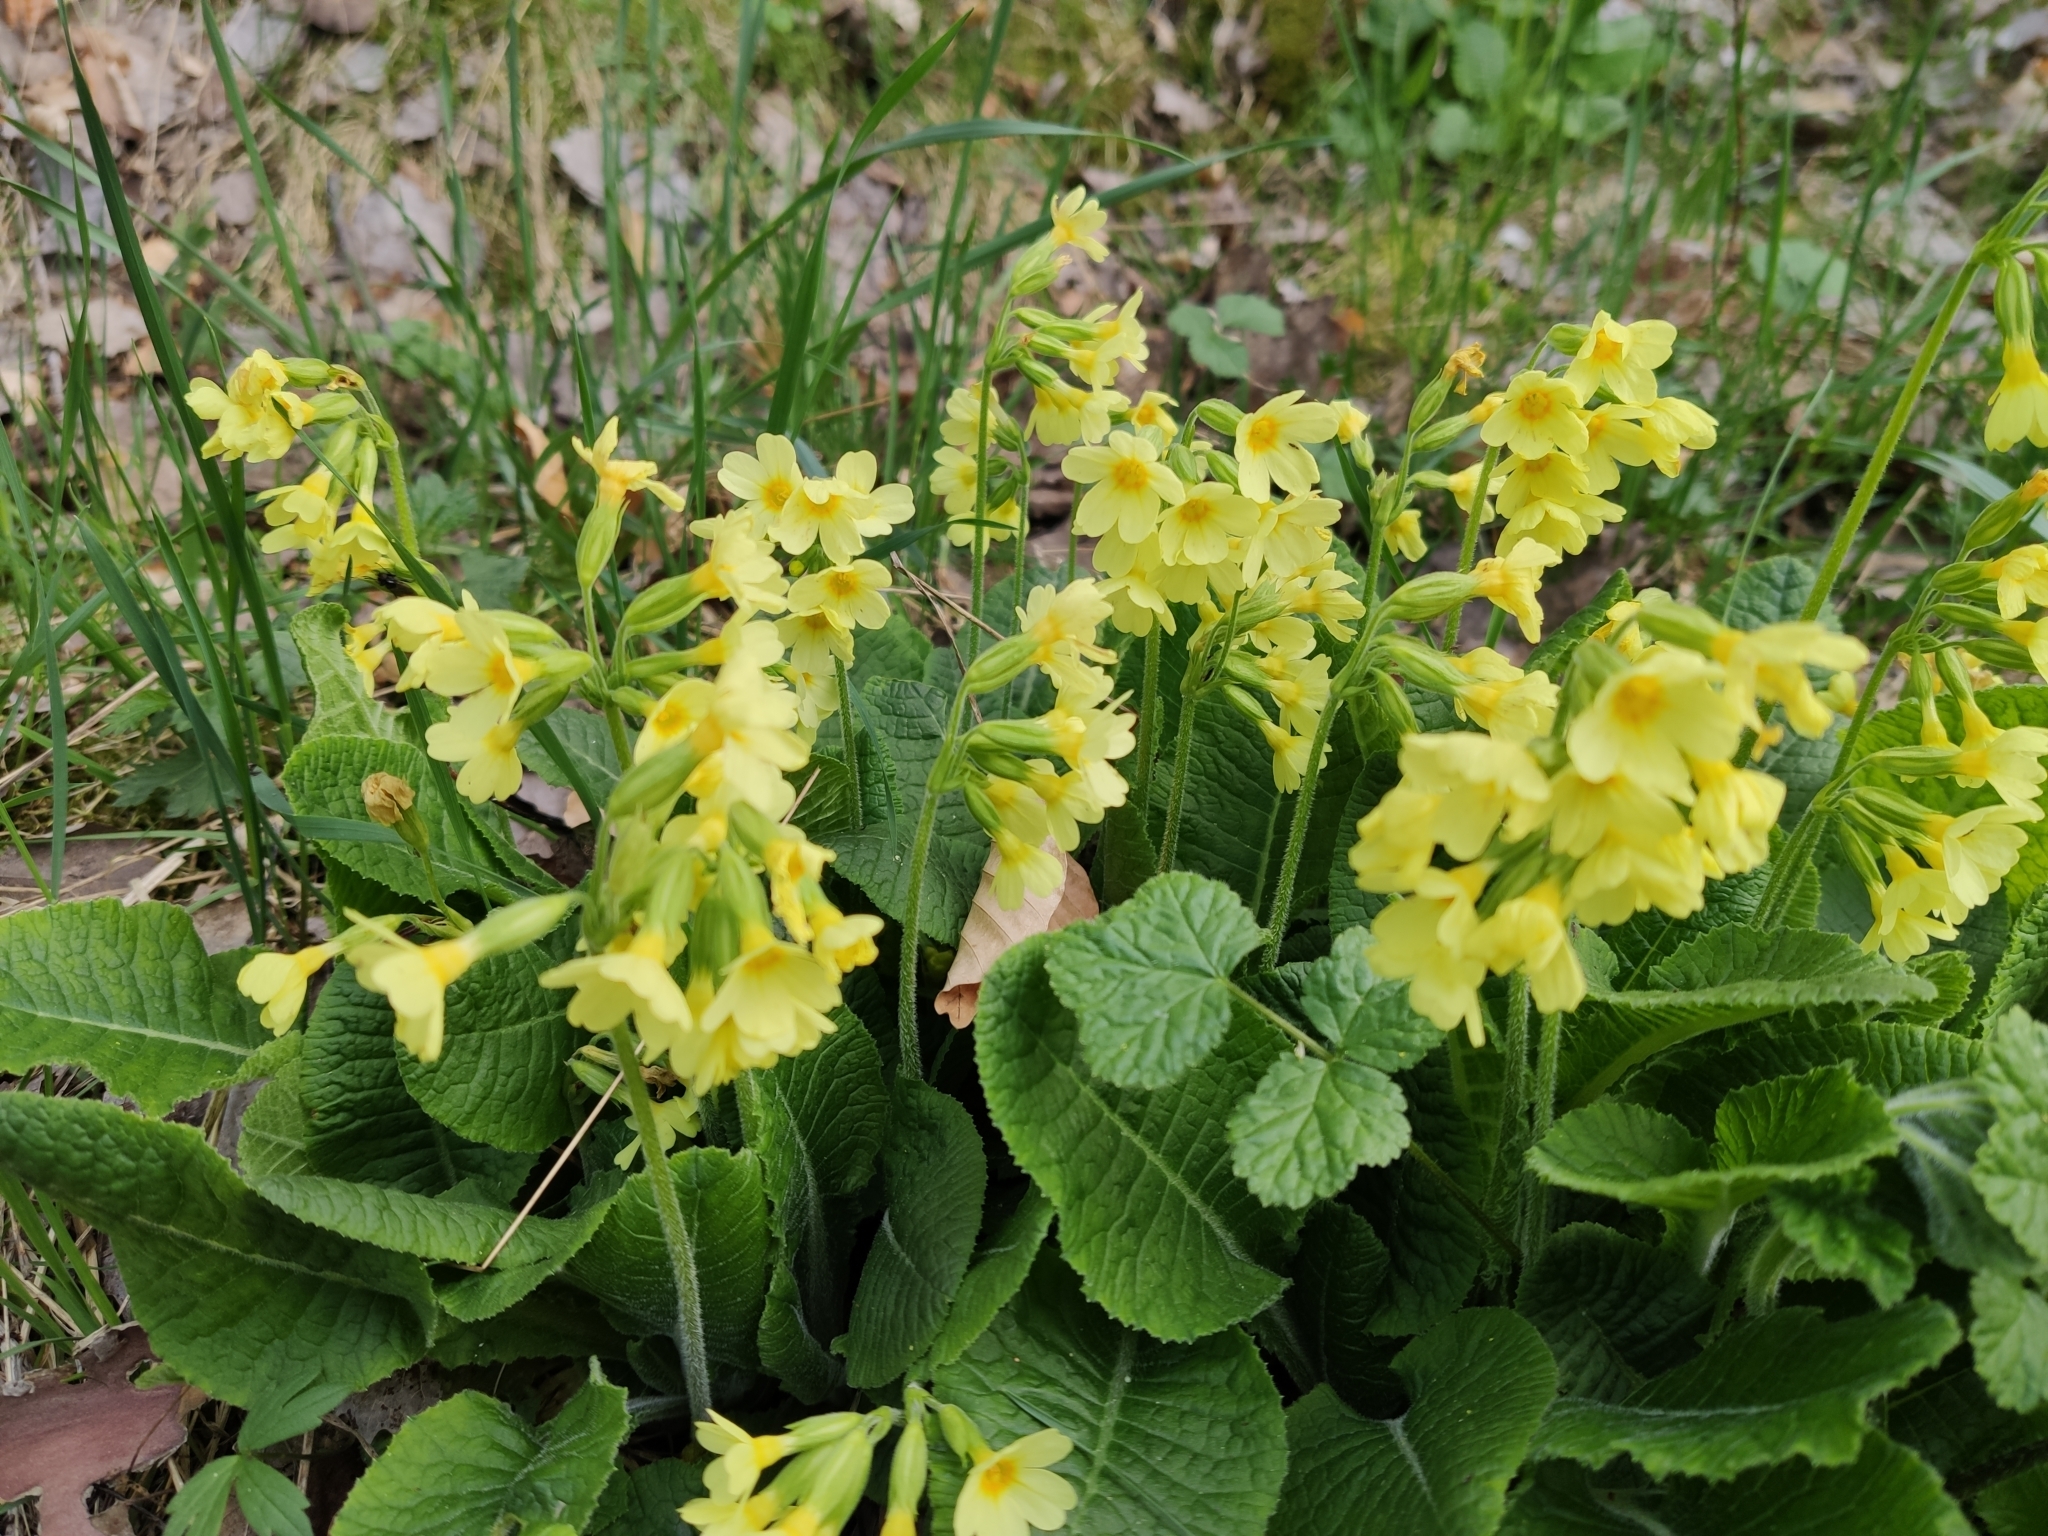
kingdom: Plantae
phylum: Tracheophyta
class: Magnoliopsida
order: Ericales
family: Primulaceae
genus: Primula
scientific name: Primula elatior
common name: Oxlip
